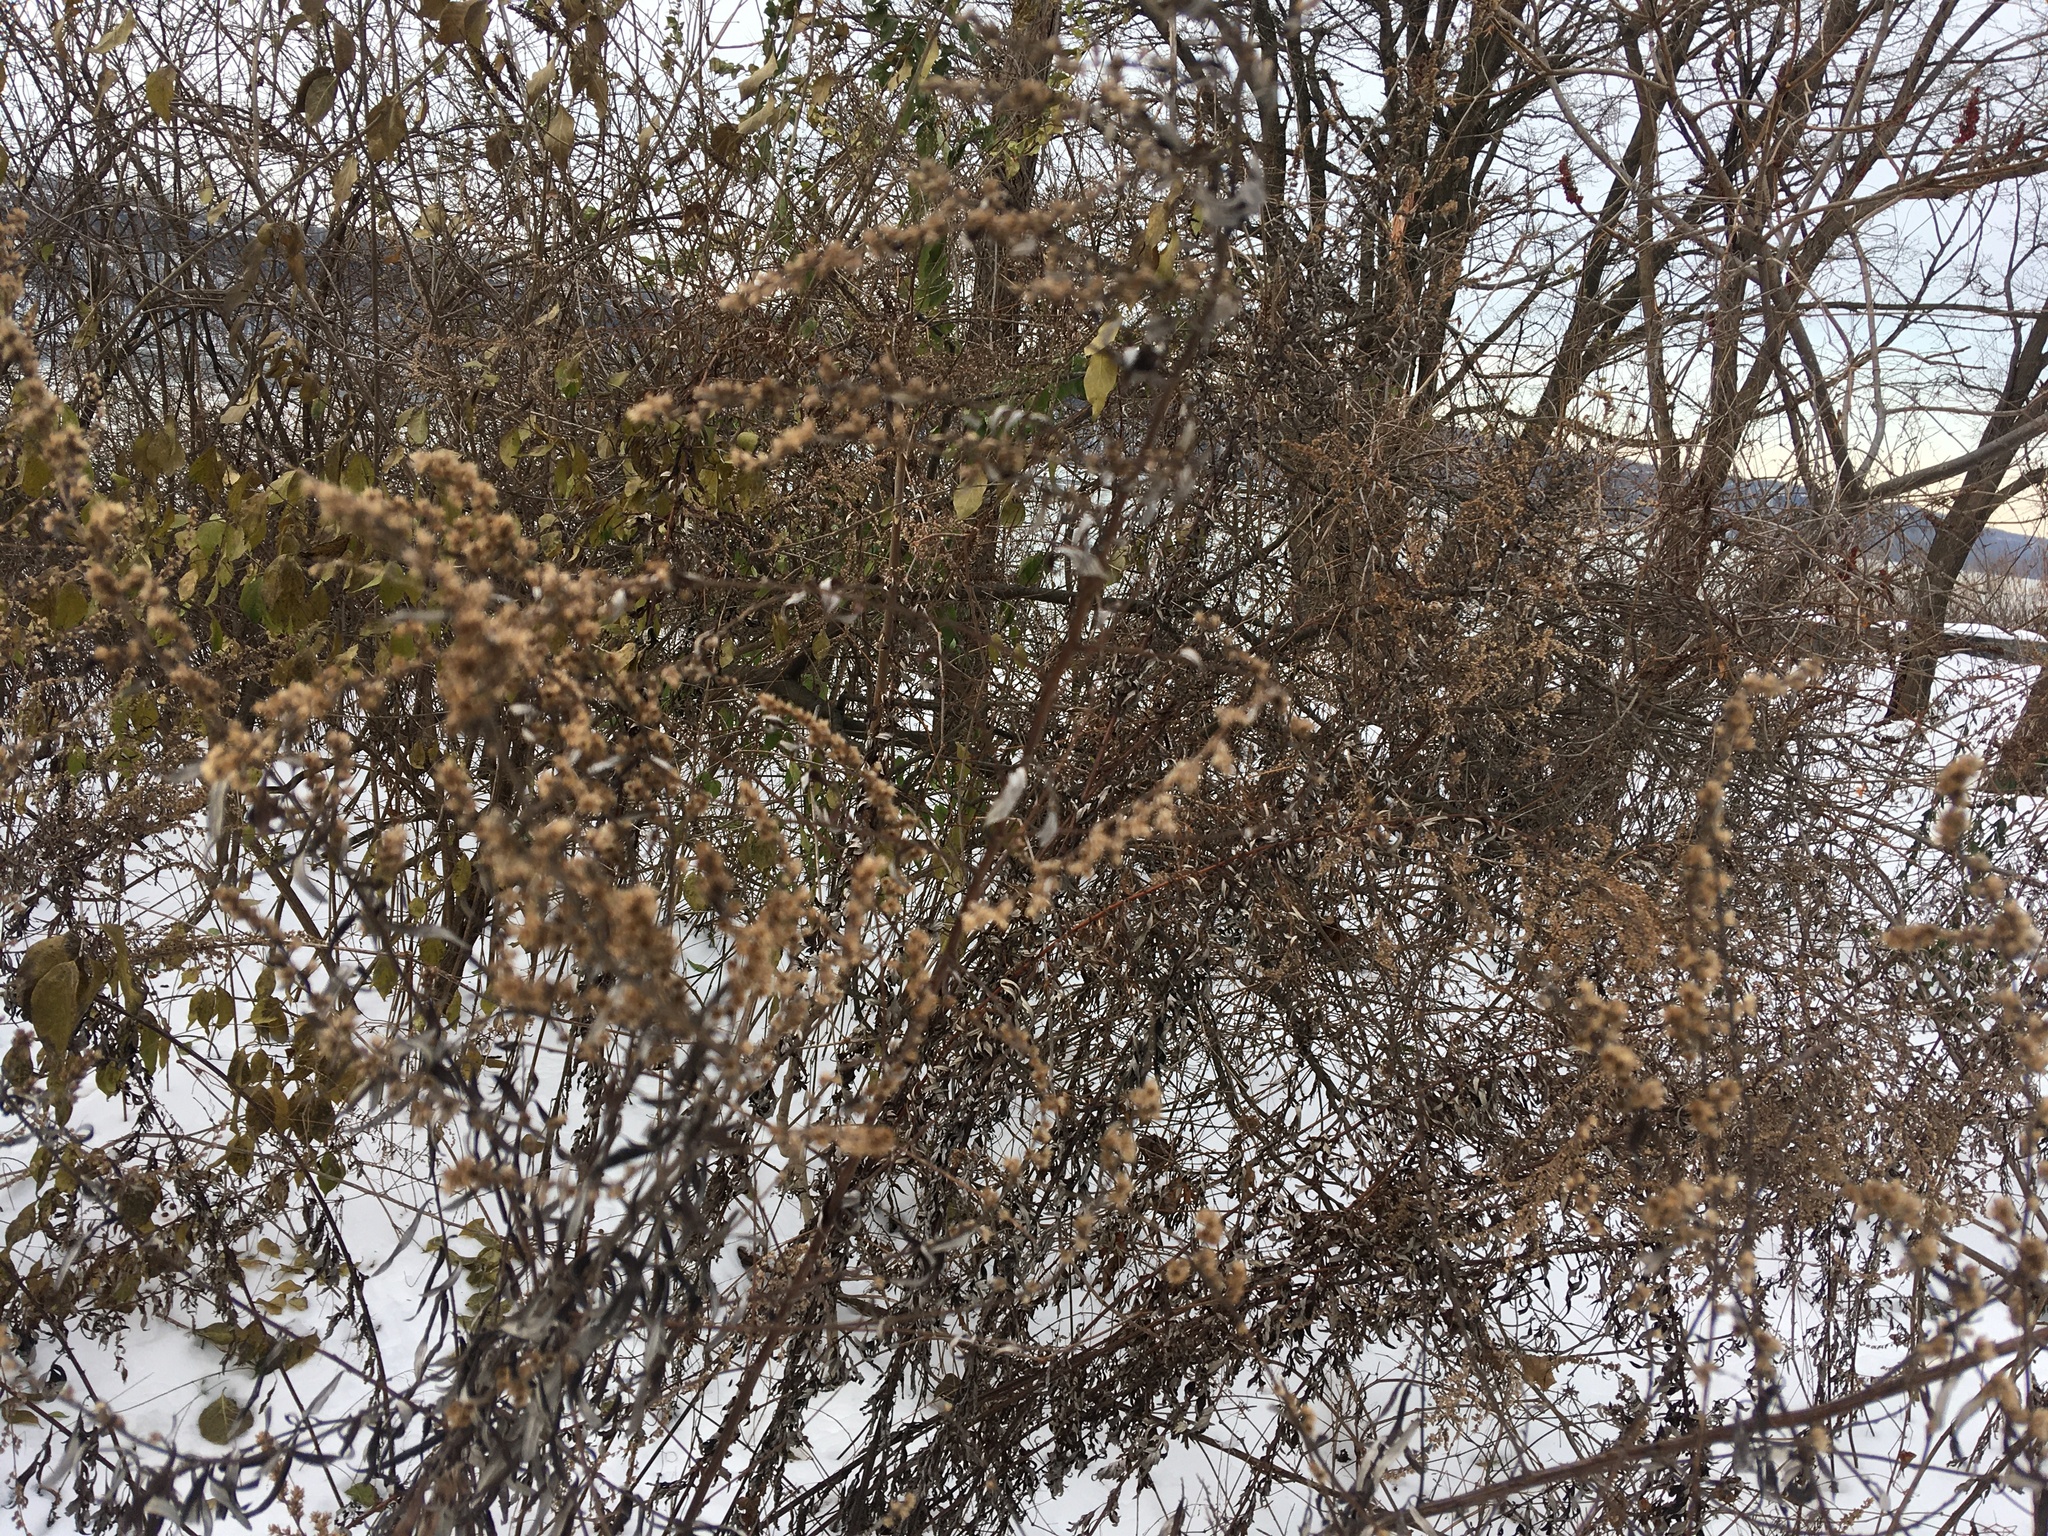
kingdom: Plantae
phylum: Tracheophyta
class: Magnoliopsida
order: Asterales
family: Asteraceae
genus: Artemisia
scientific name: Artemisia vulgaris
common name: Mugwort
